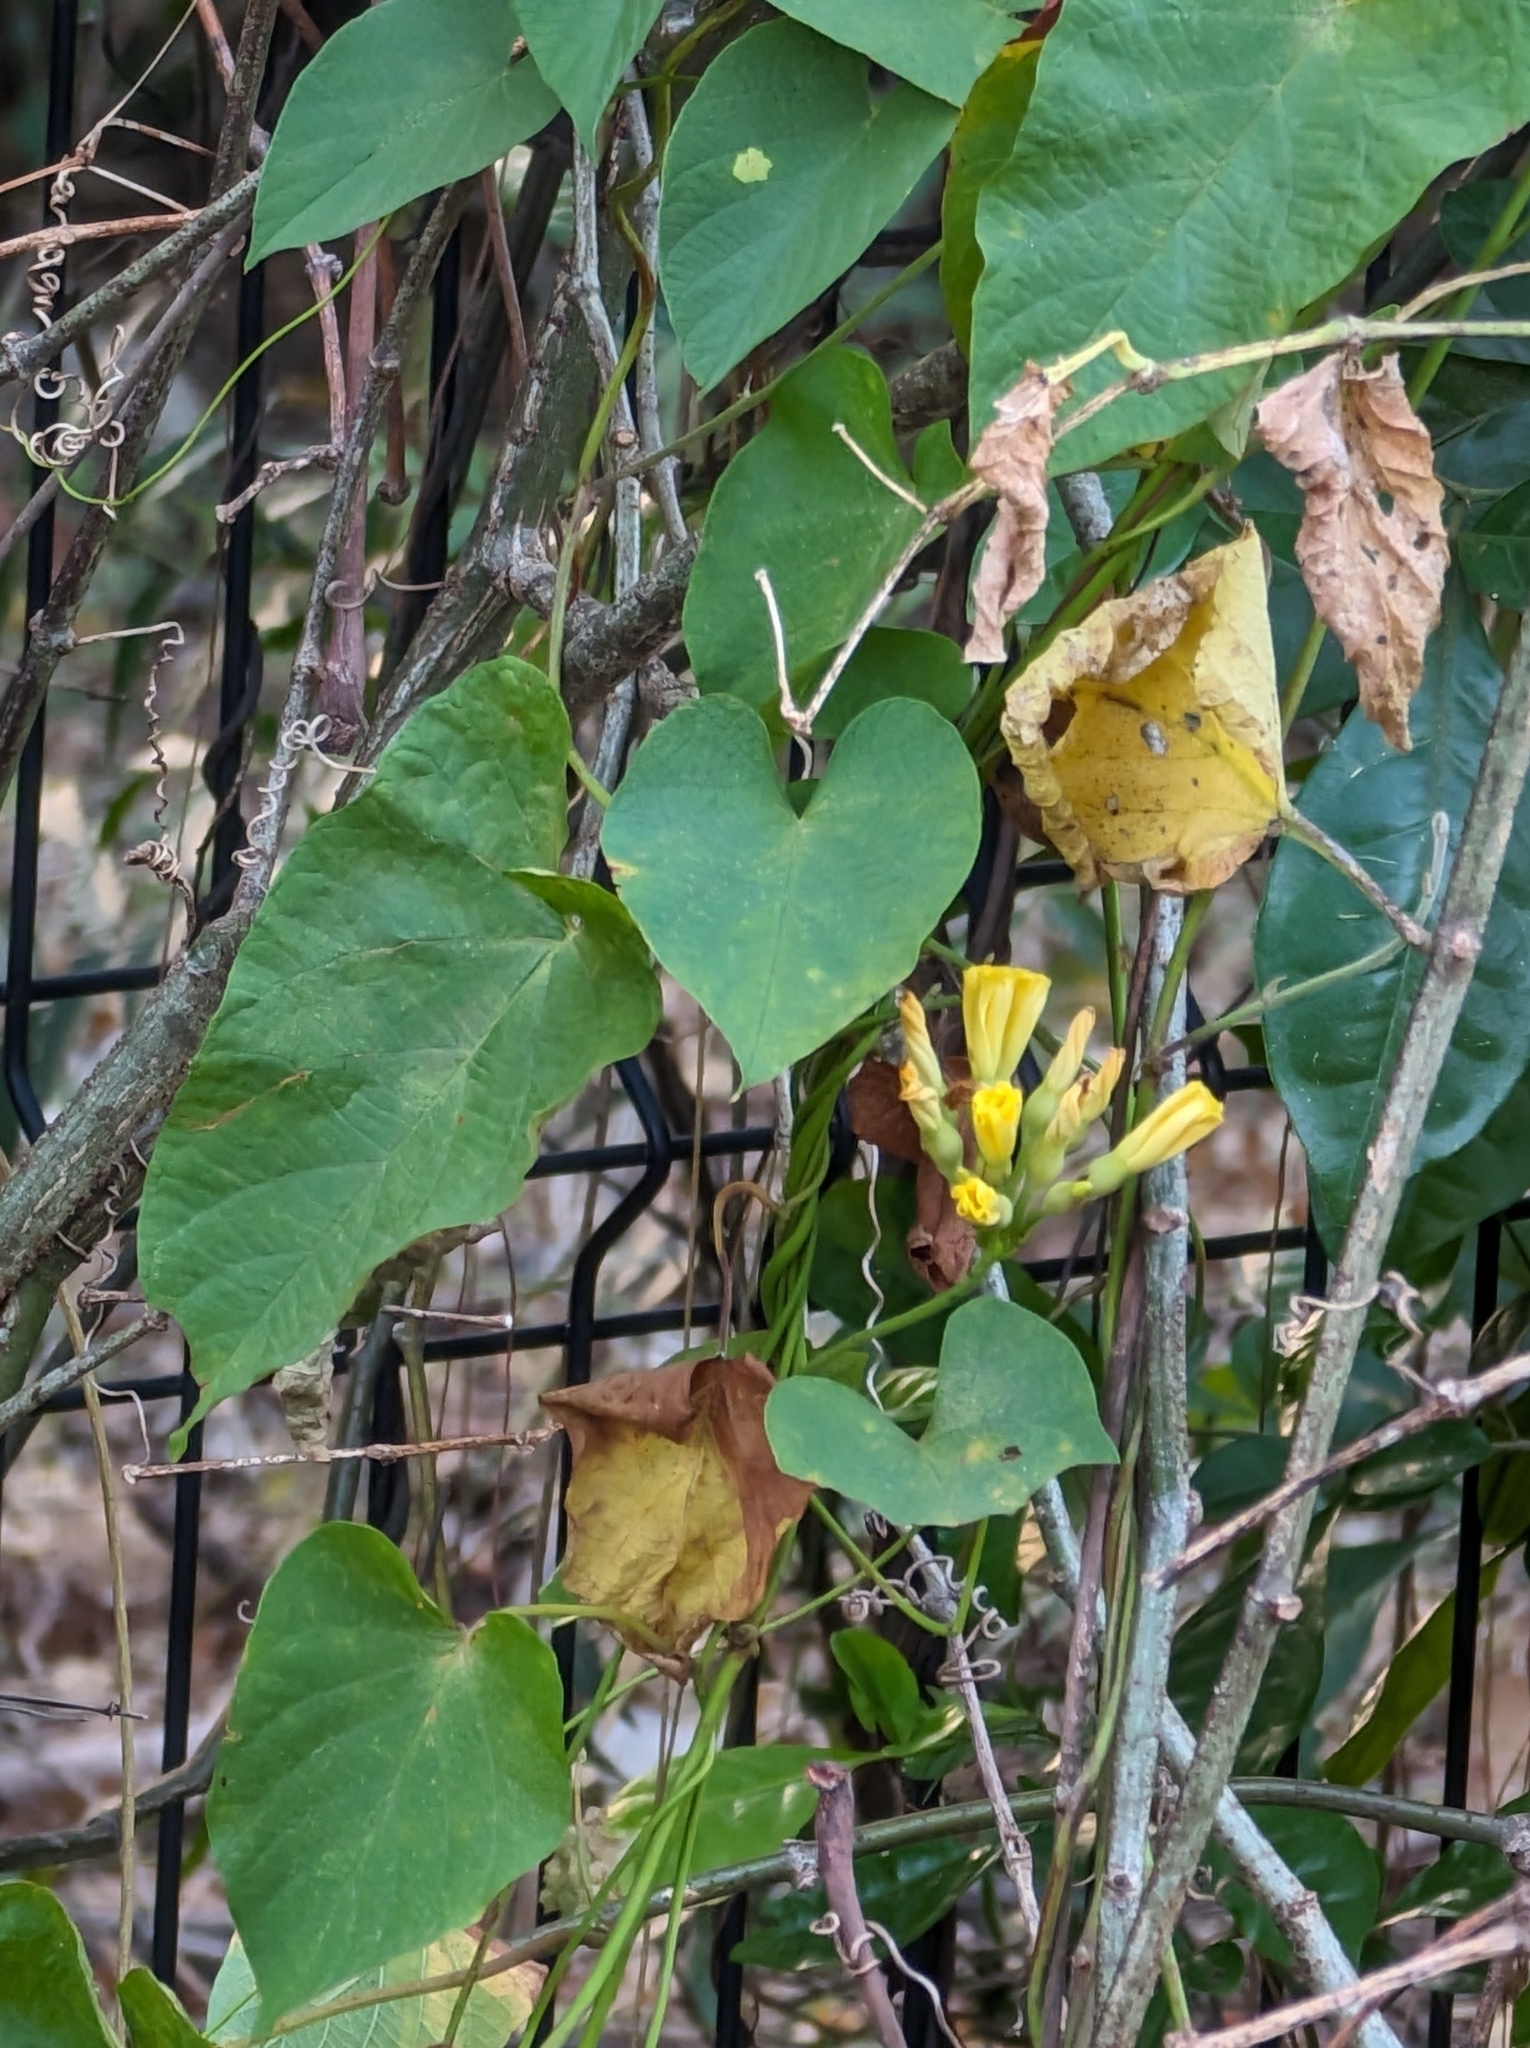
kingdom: Plantae
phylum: Tracheophyta
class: Magnoliopsida
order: Solanales
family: Convolvulaceae
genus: Camonea
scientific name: Camonea umbellata
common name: Hogvine
